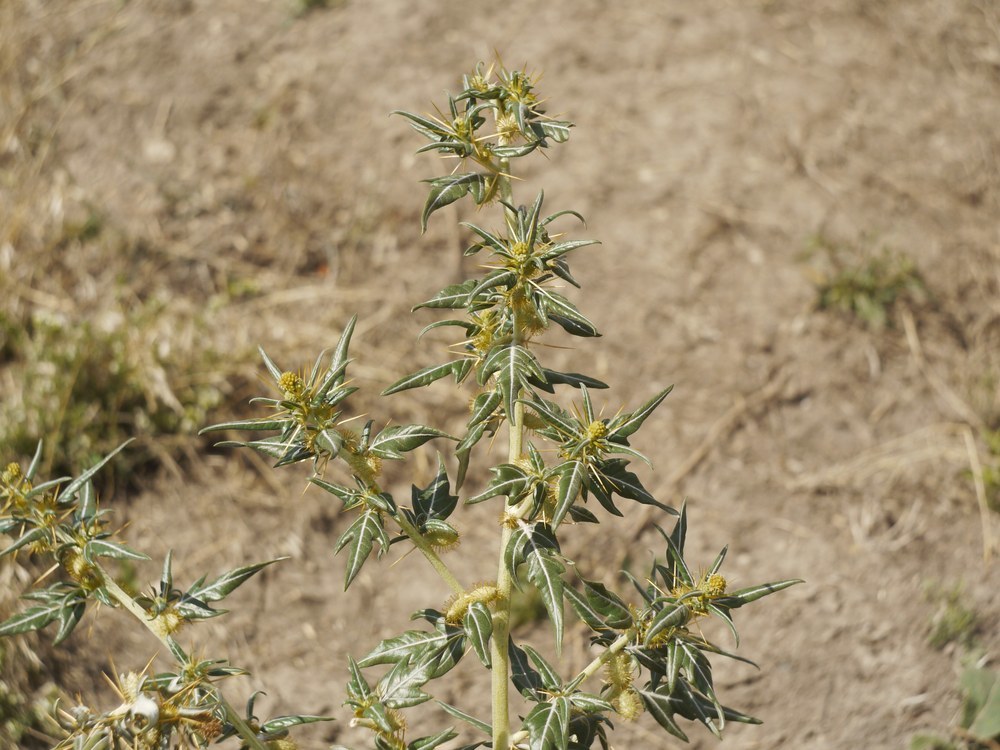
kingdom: Plantae
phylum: Tracheophyta
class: Magnoliopsida
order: Asterales
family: Asteraceae
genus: Xanthium
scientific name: Xanthium spinosum
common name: Spiny cocklebur
